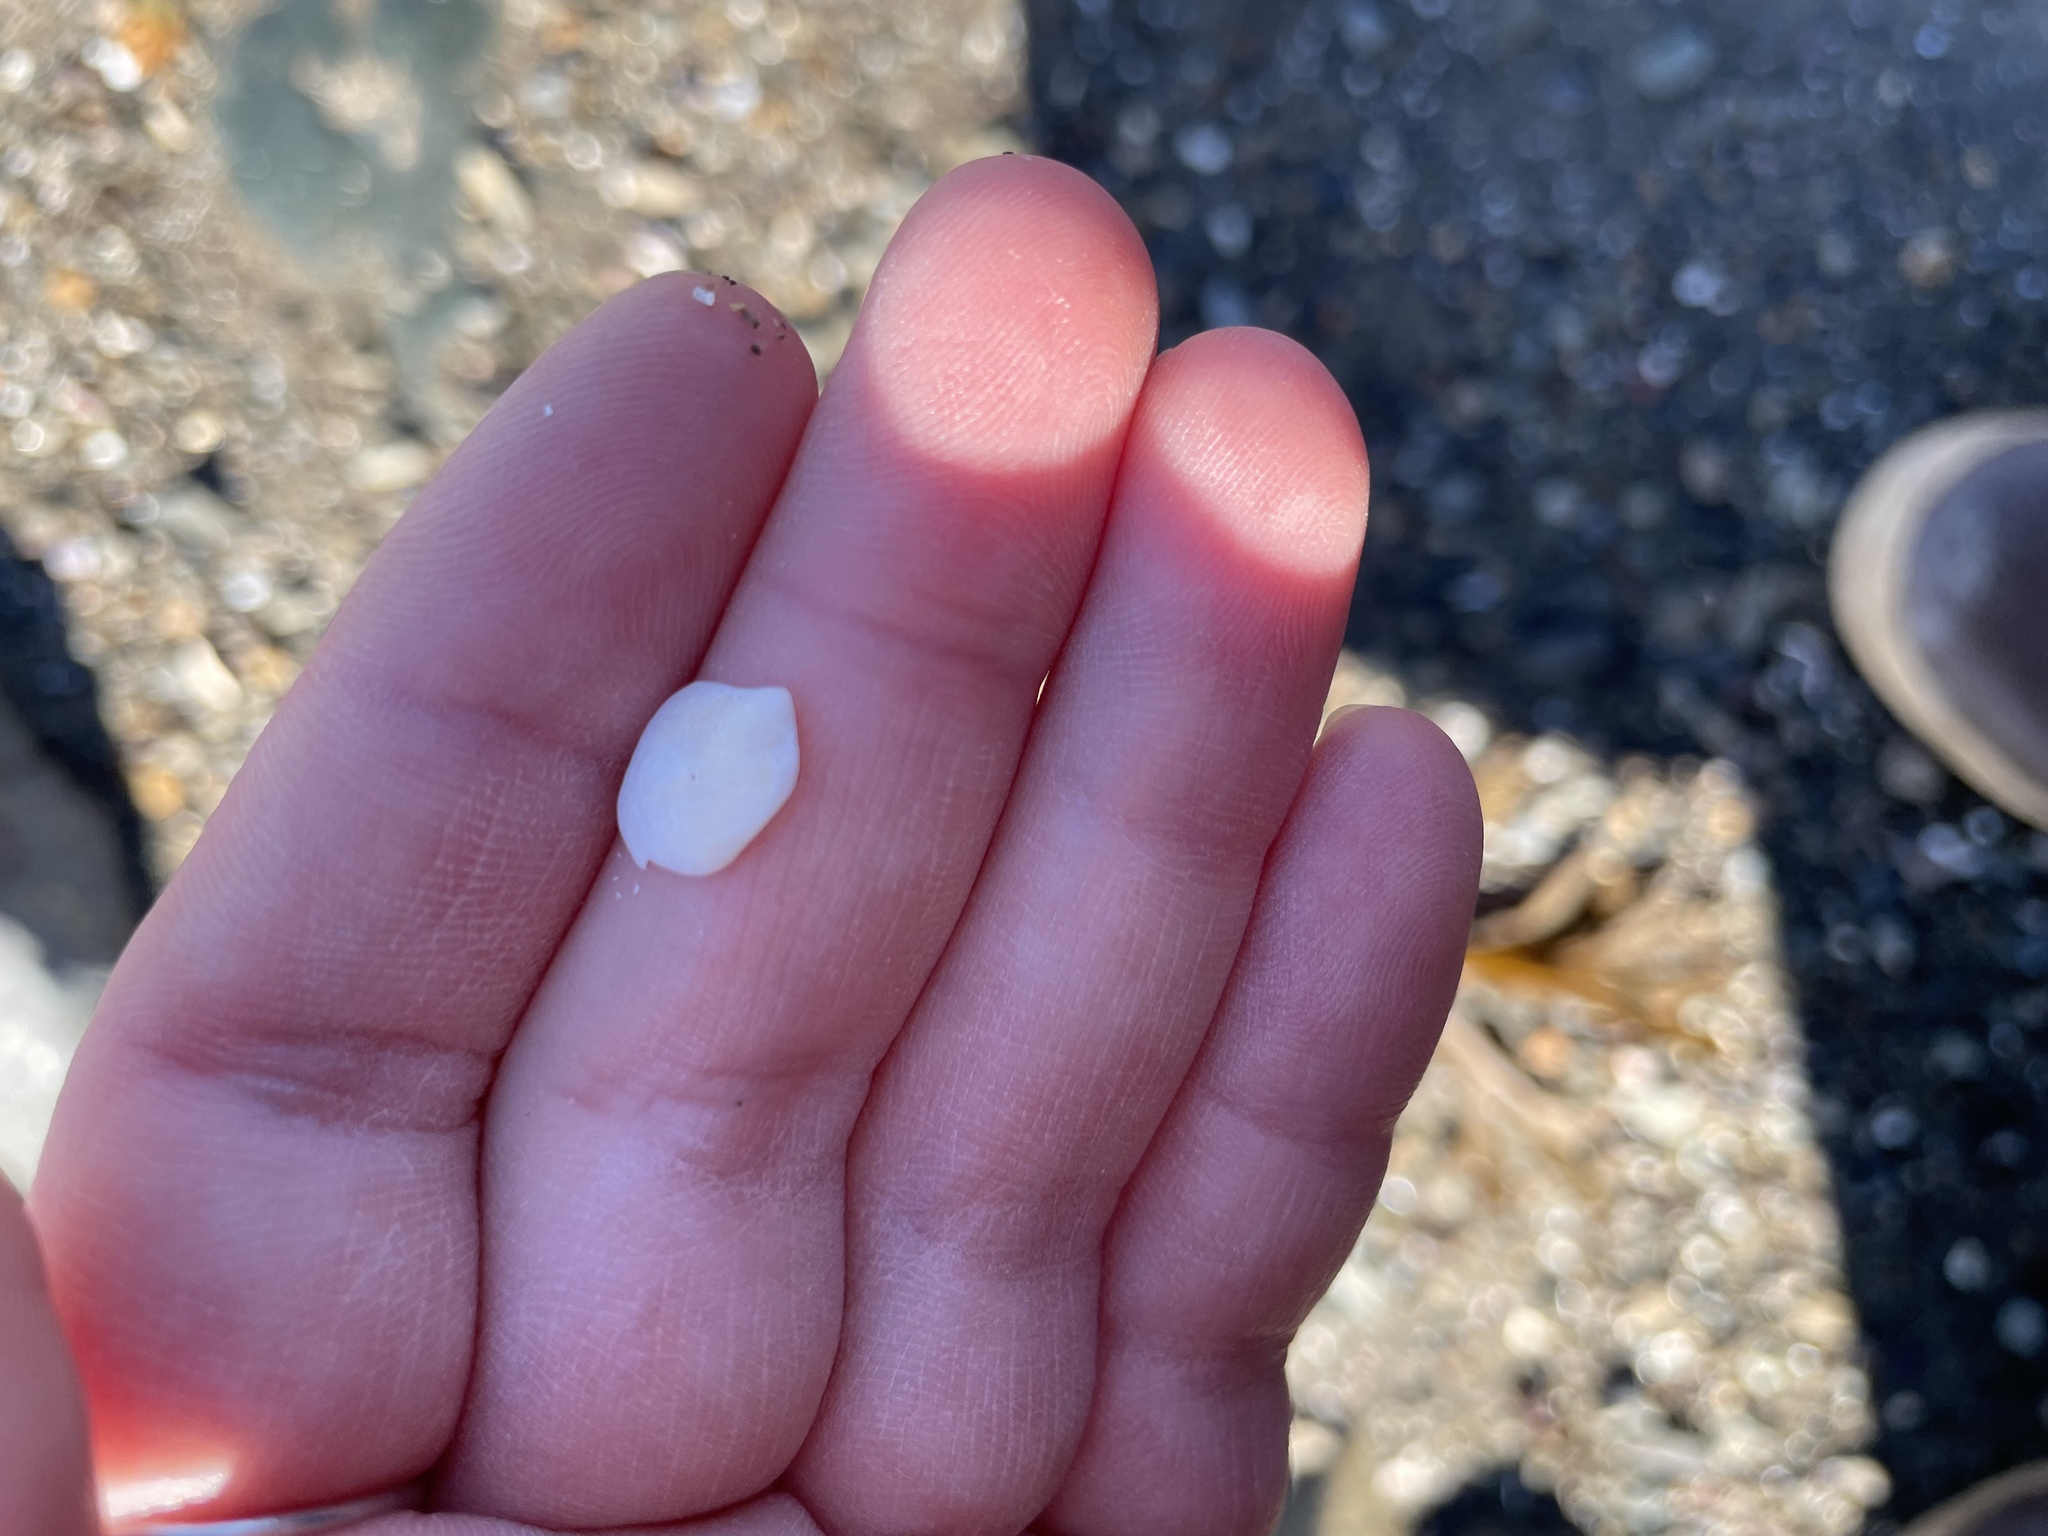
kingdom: Animalia
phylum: Mollusca
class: Gastropoda
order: Littorinimorpha
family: Calyptraeidae
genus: Crepidula
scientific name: Crepidula plana
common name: Eastern white slippersnail
